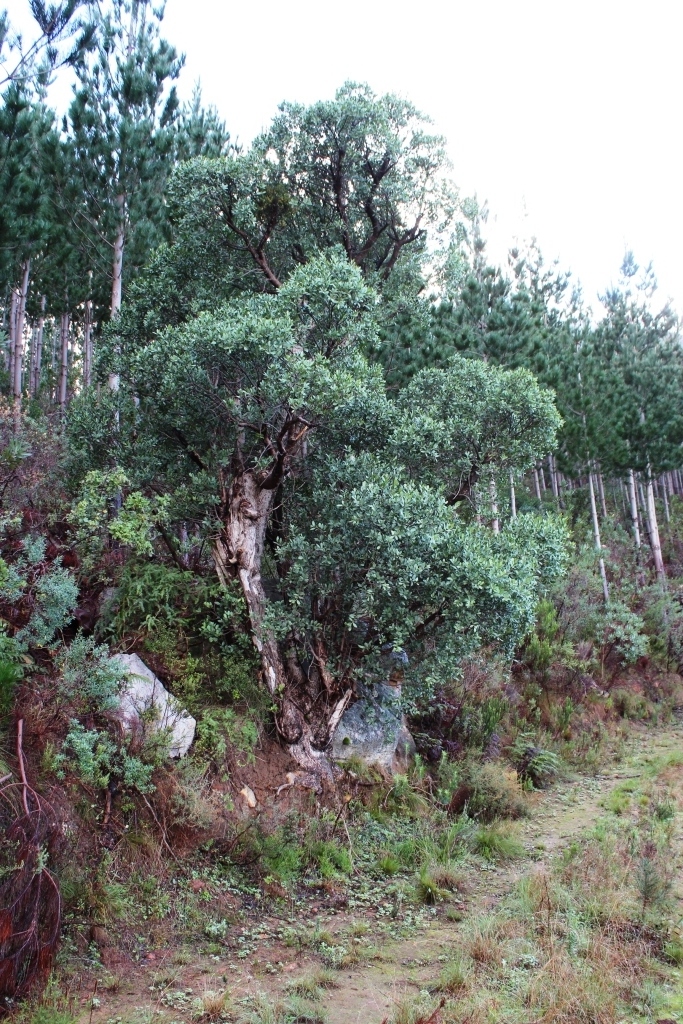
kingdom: Plantae
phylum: Tracheophyta
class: Magnoliopsida
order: Celastrales
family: Celastraceae
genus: Gymnosporia
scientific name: Gymnosporia laurina
